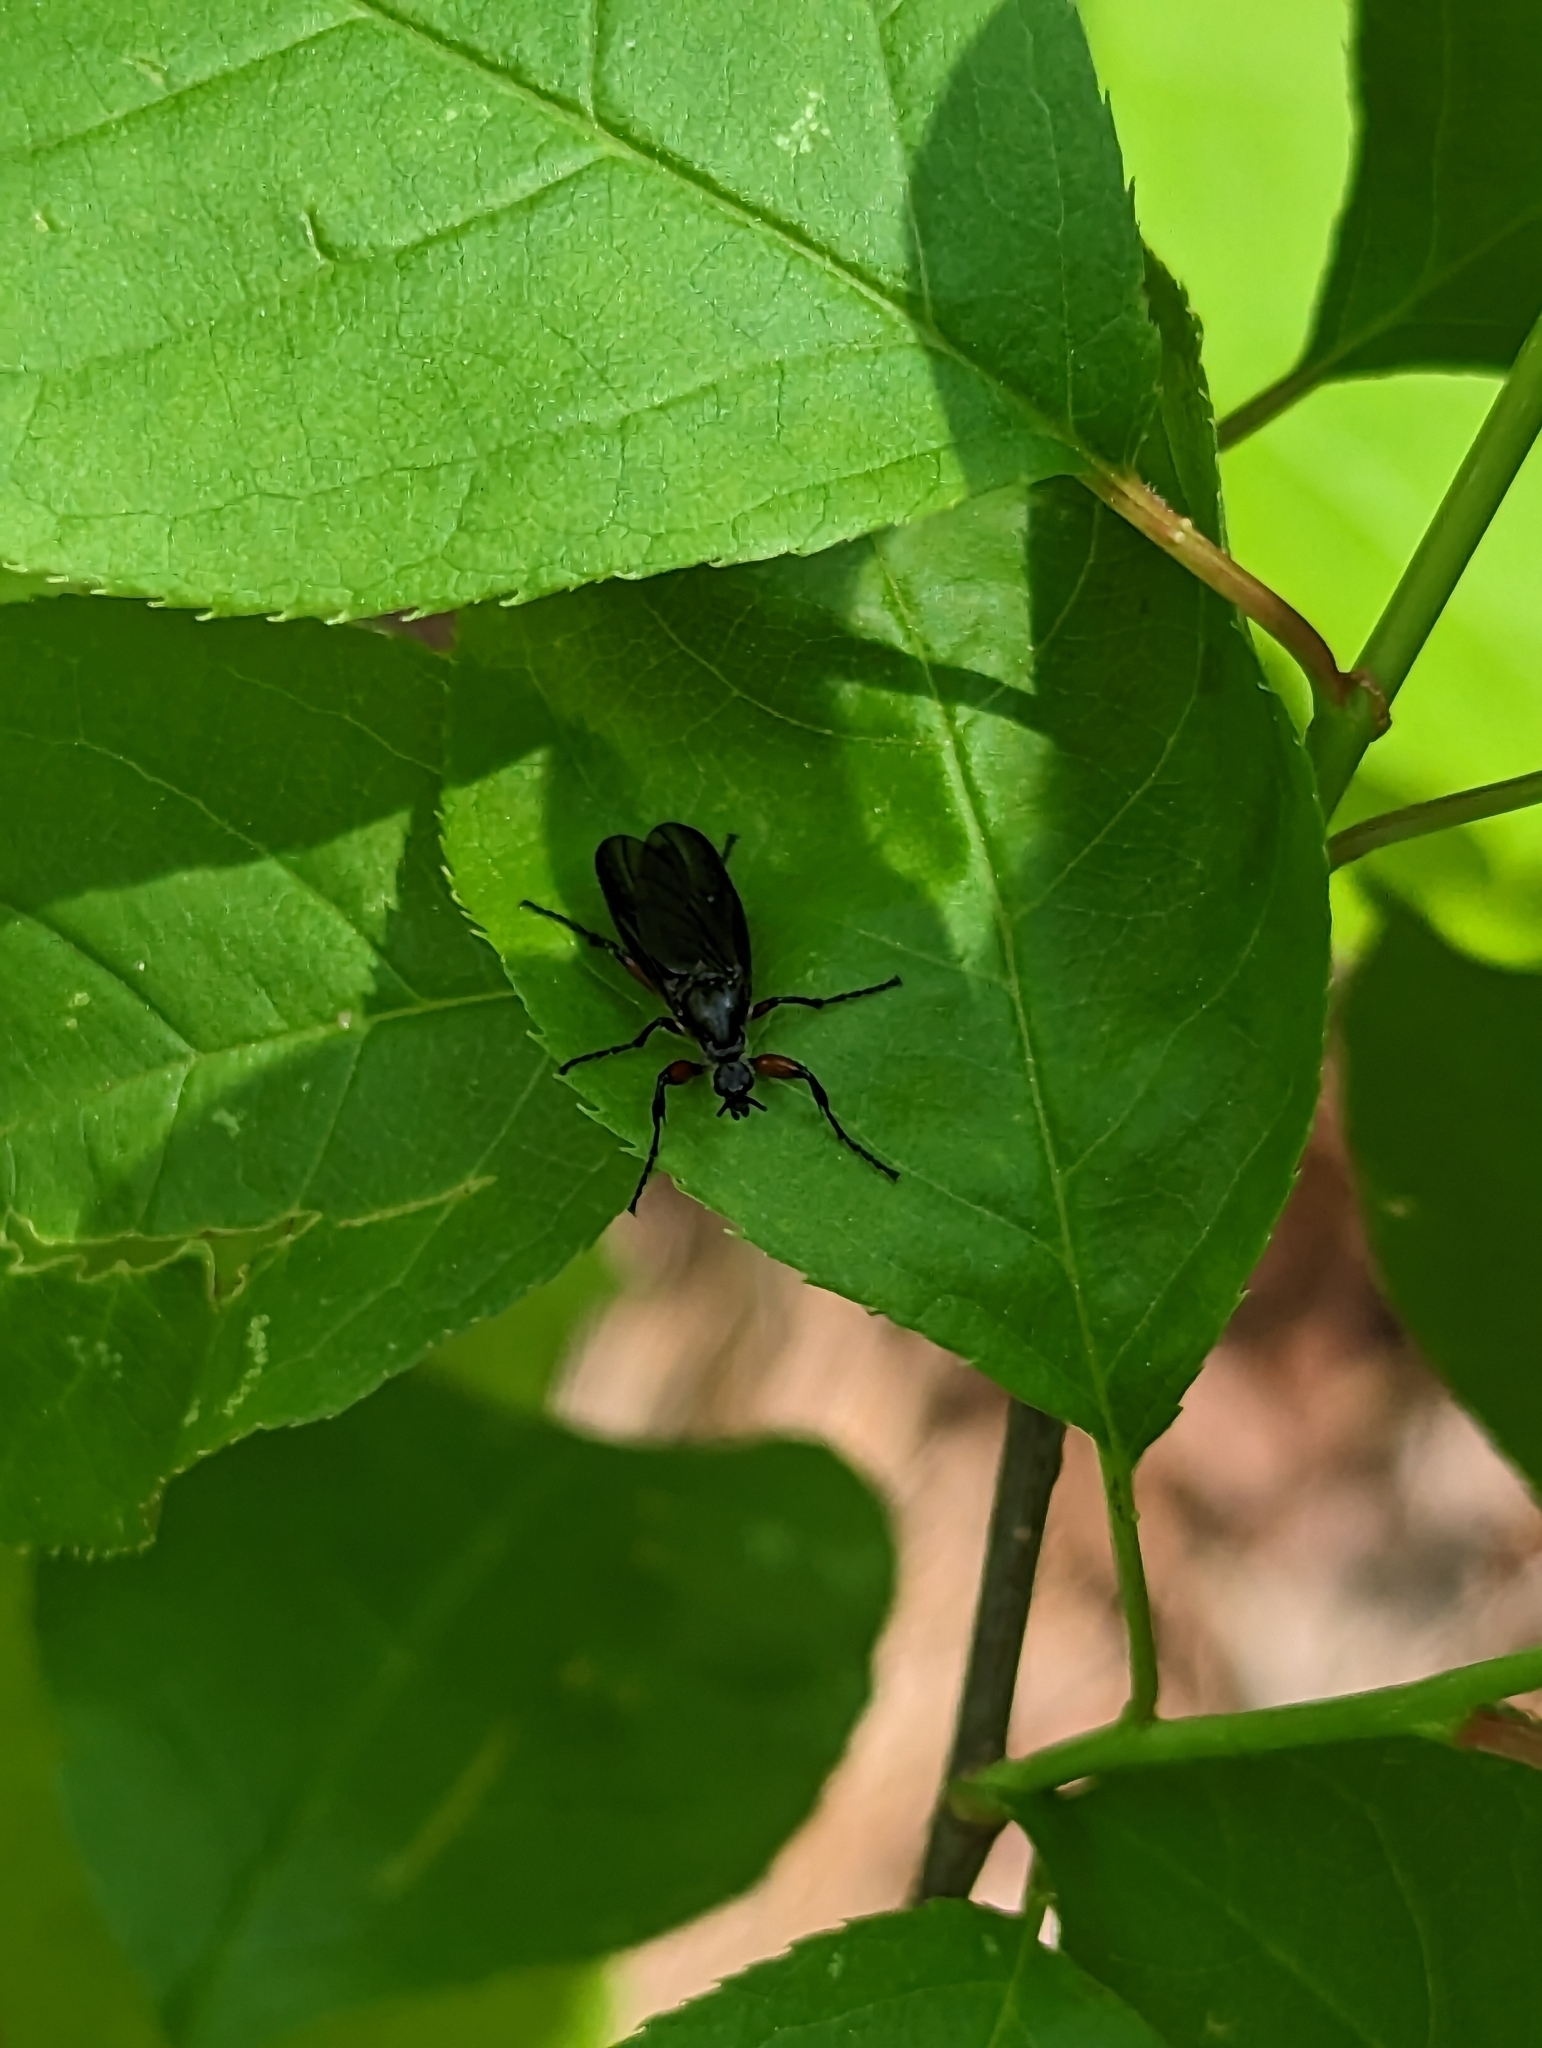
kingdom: Animalia
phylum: Arthropoda
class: Insecta
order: Diptera
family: Bibionidae
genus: Bibio
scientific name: Bibio femoratus
